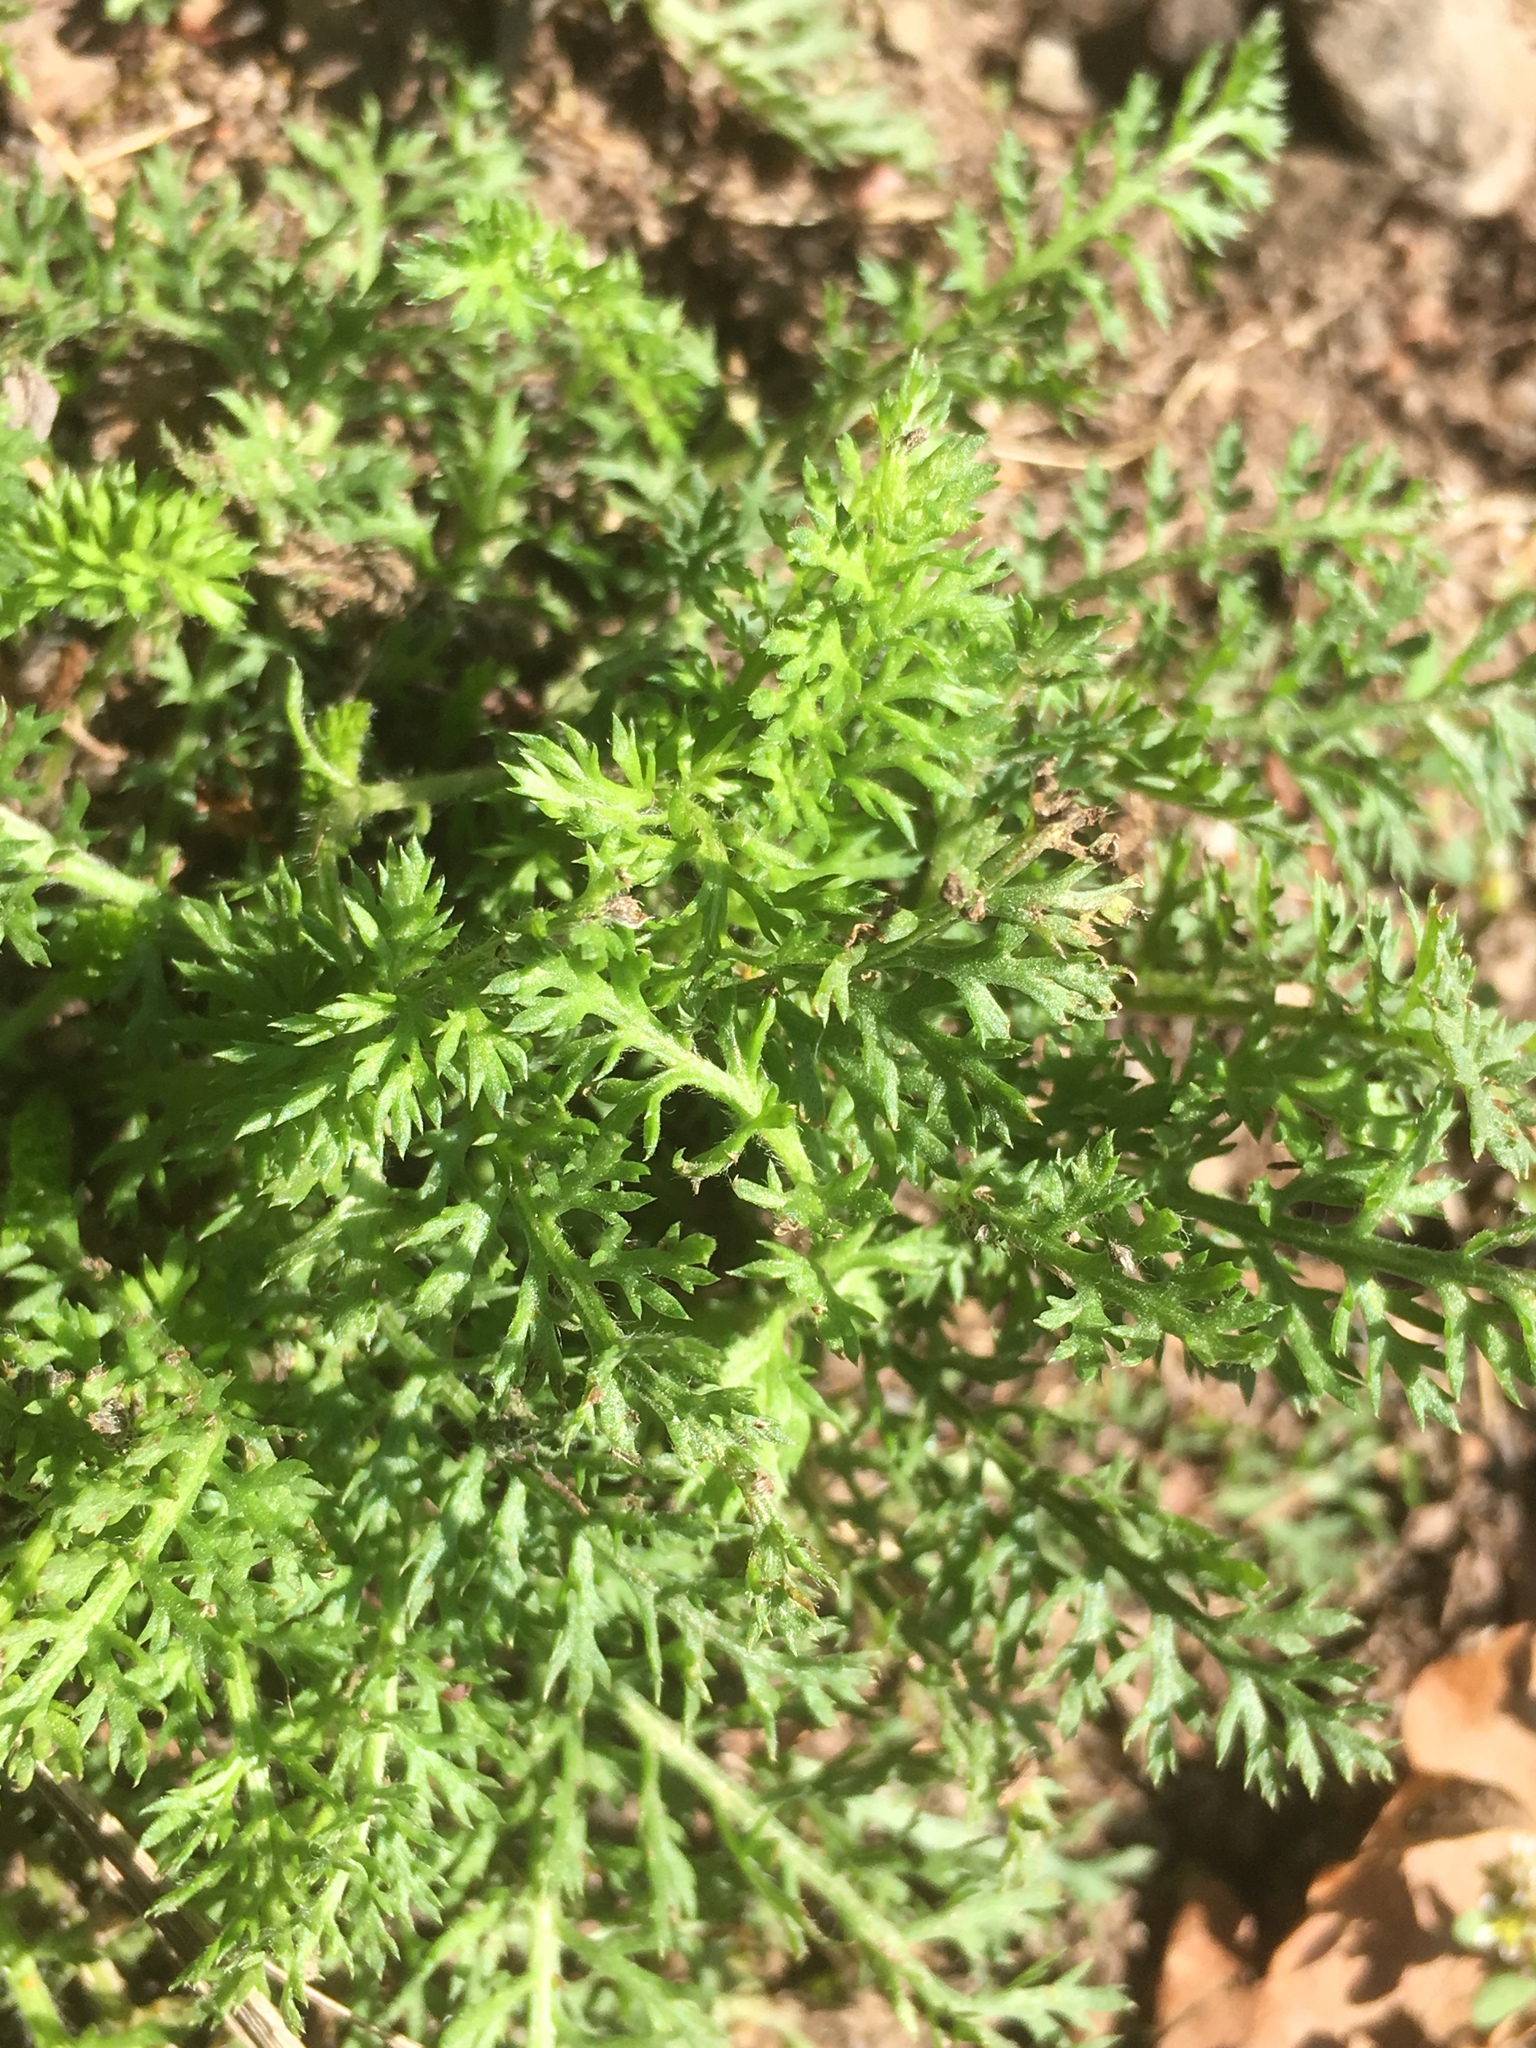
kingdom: Plantae
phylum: Tracheophyta
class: Magnoliopsida
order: Asterales
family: Asteraceae
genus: Achillea
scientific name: Achillea millefolium
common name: Yarrow
